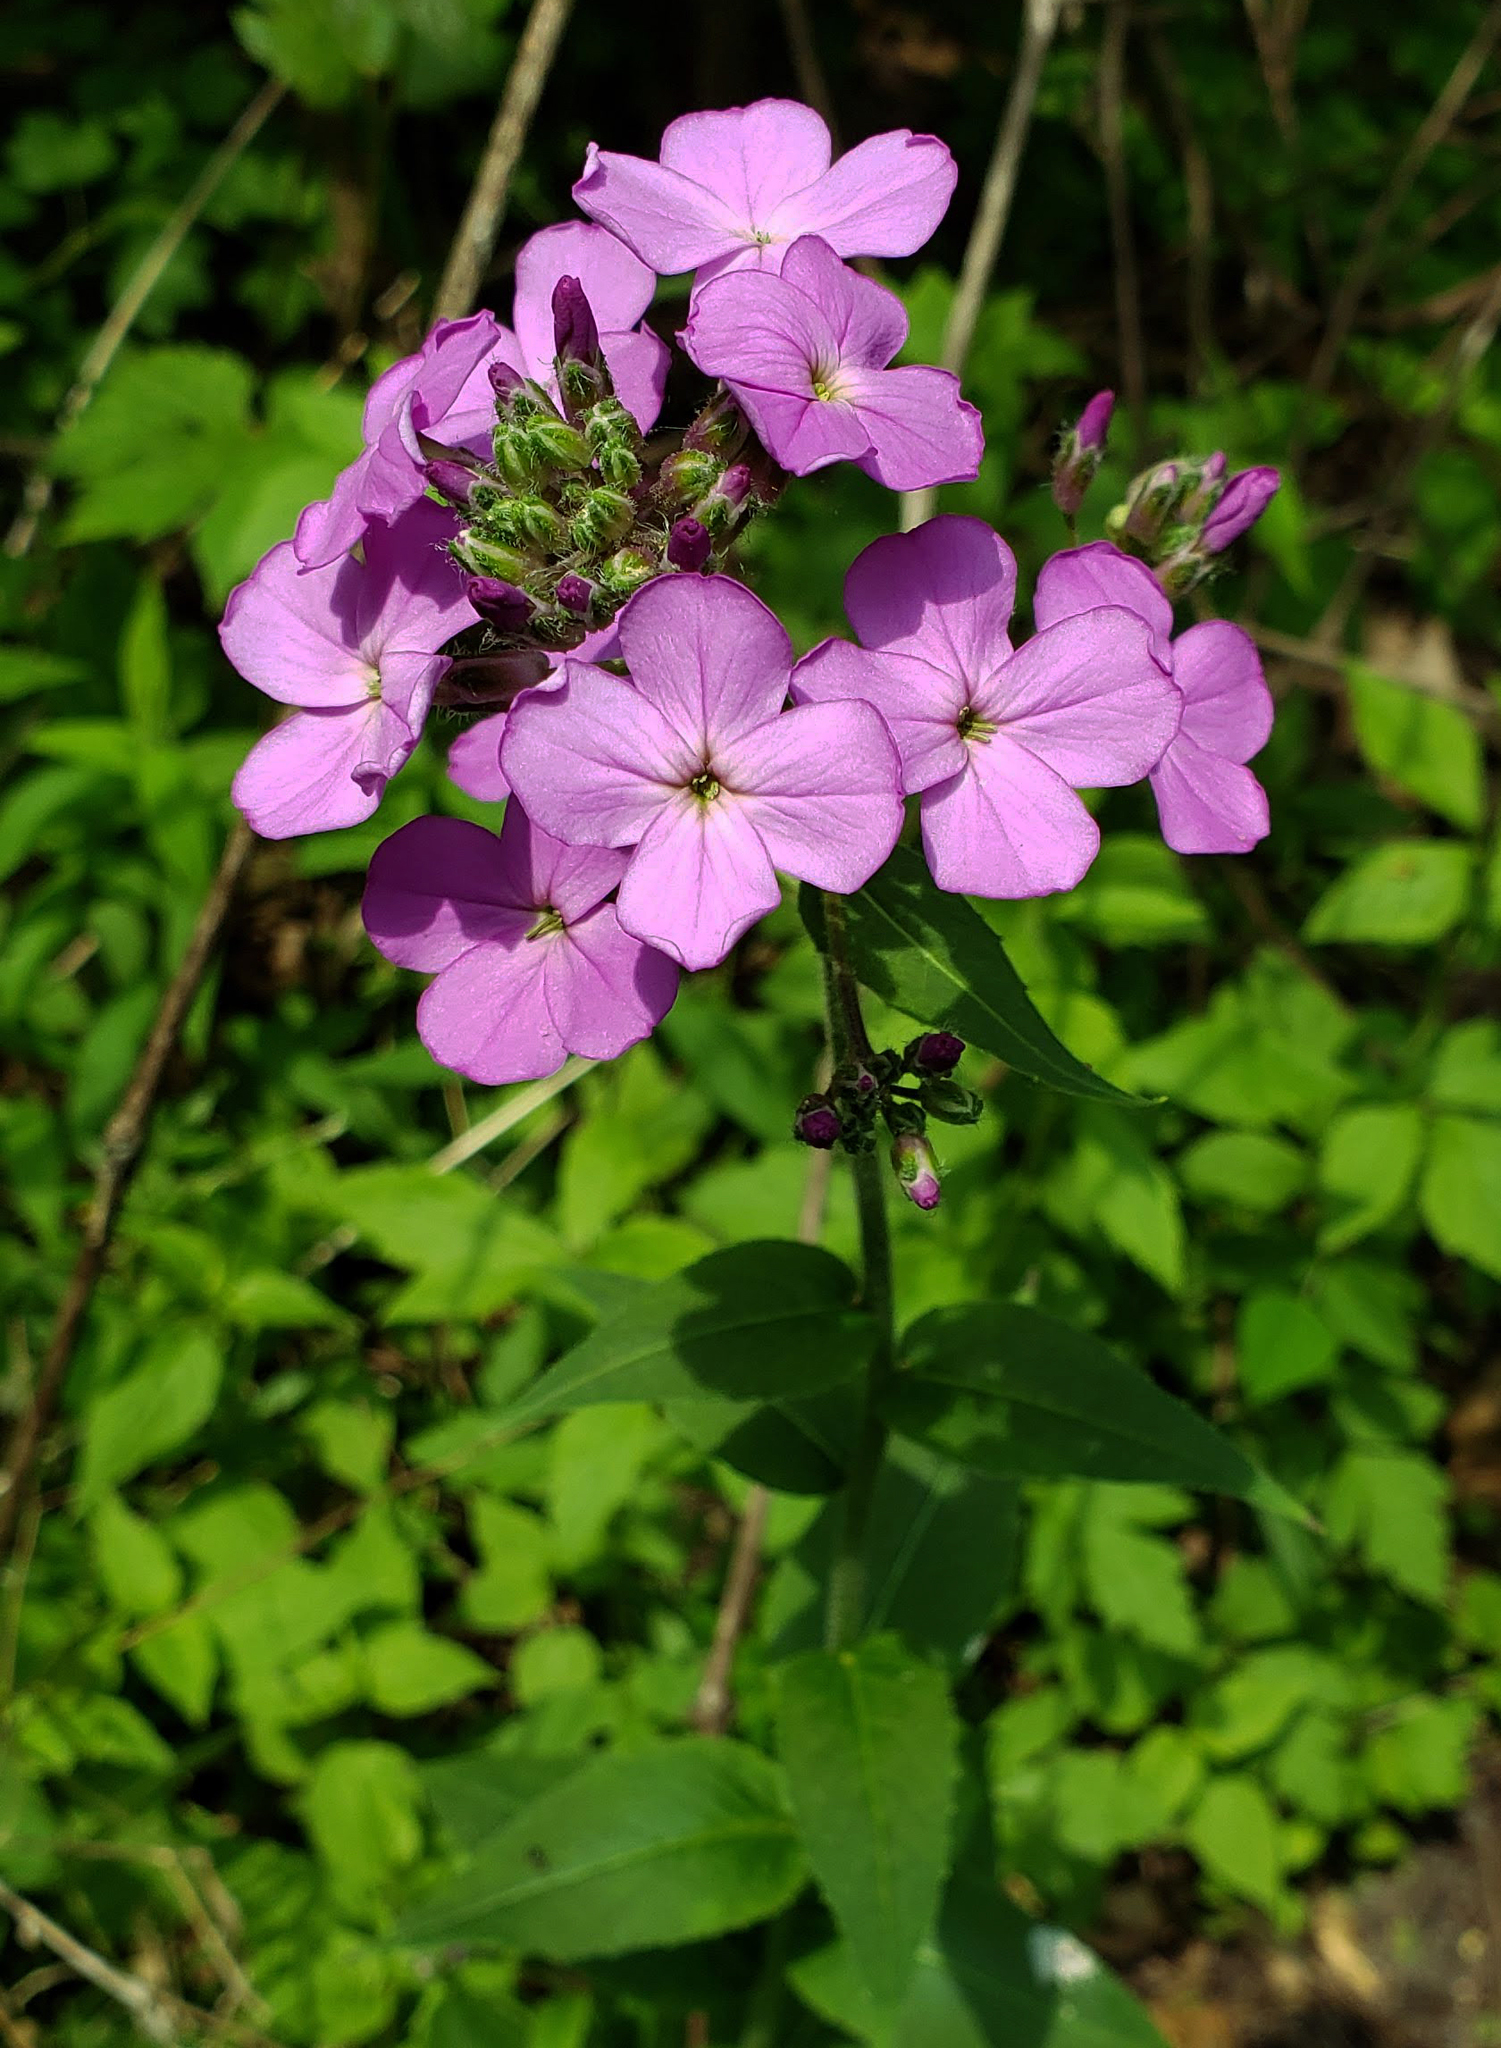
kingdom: Plantae
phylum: Tracheophyta
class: Magnoliopsida
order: Brassicales
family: Brassicaceae
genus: Hesperis
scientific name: Hesperis matronalis
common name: Dame's-violet
